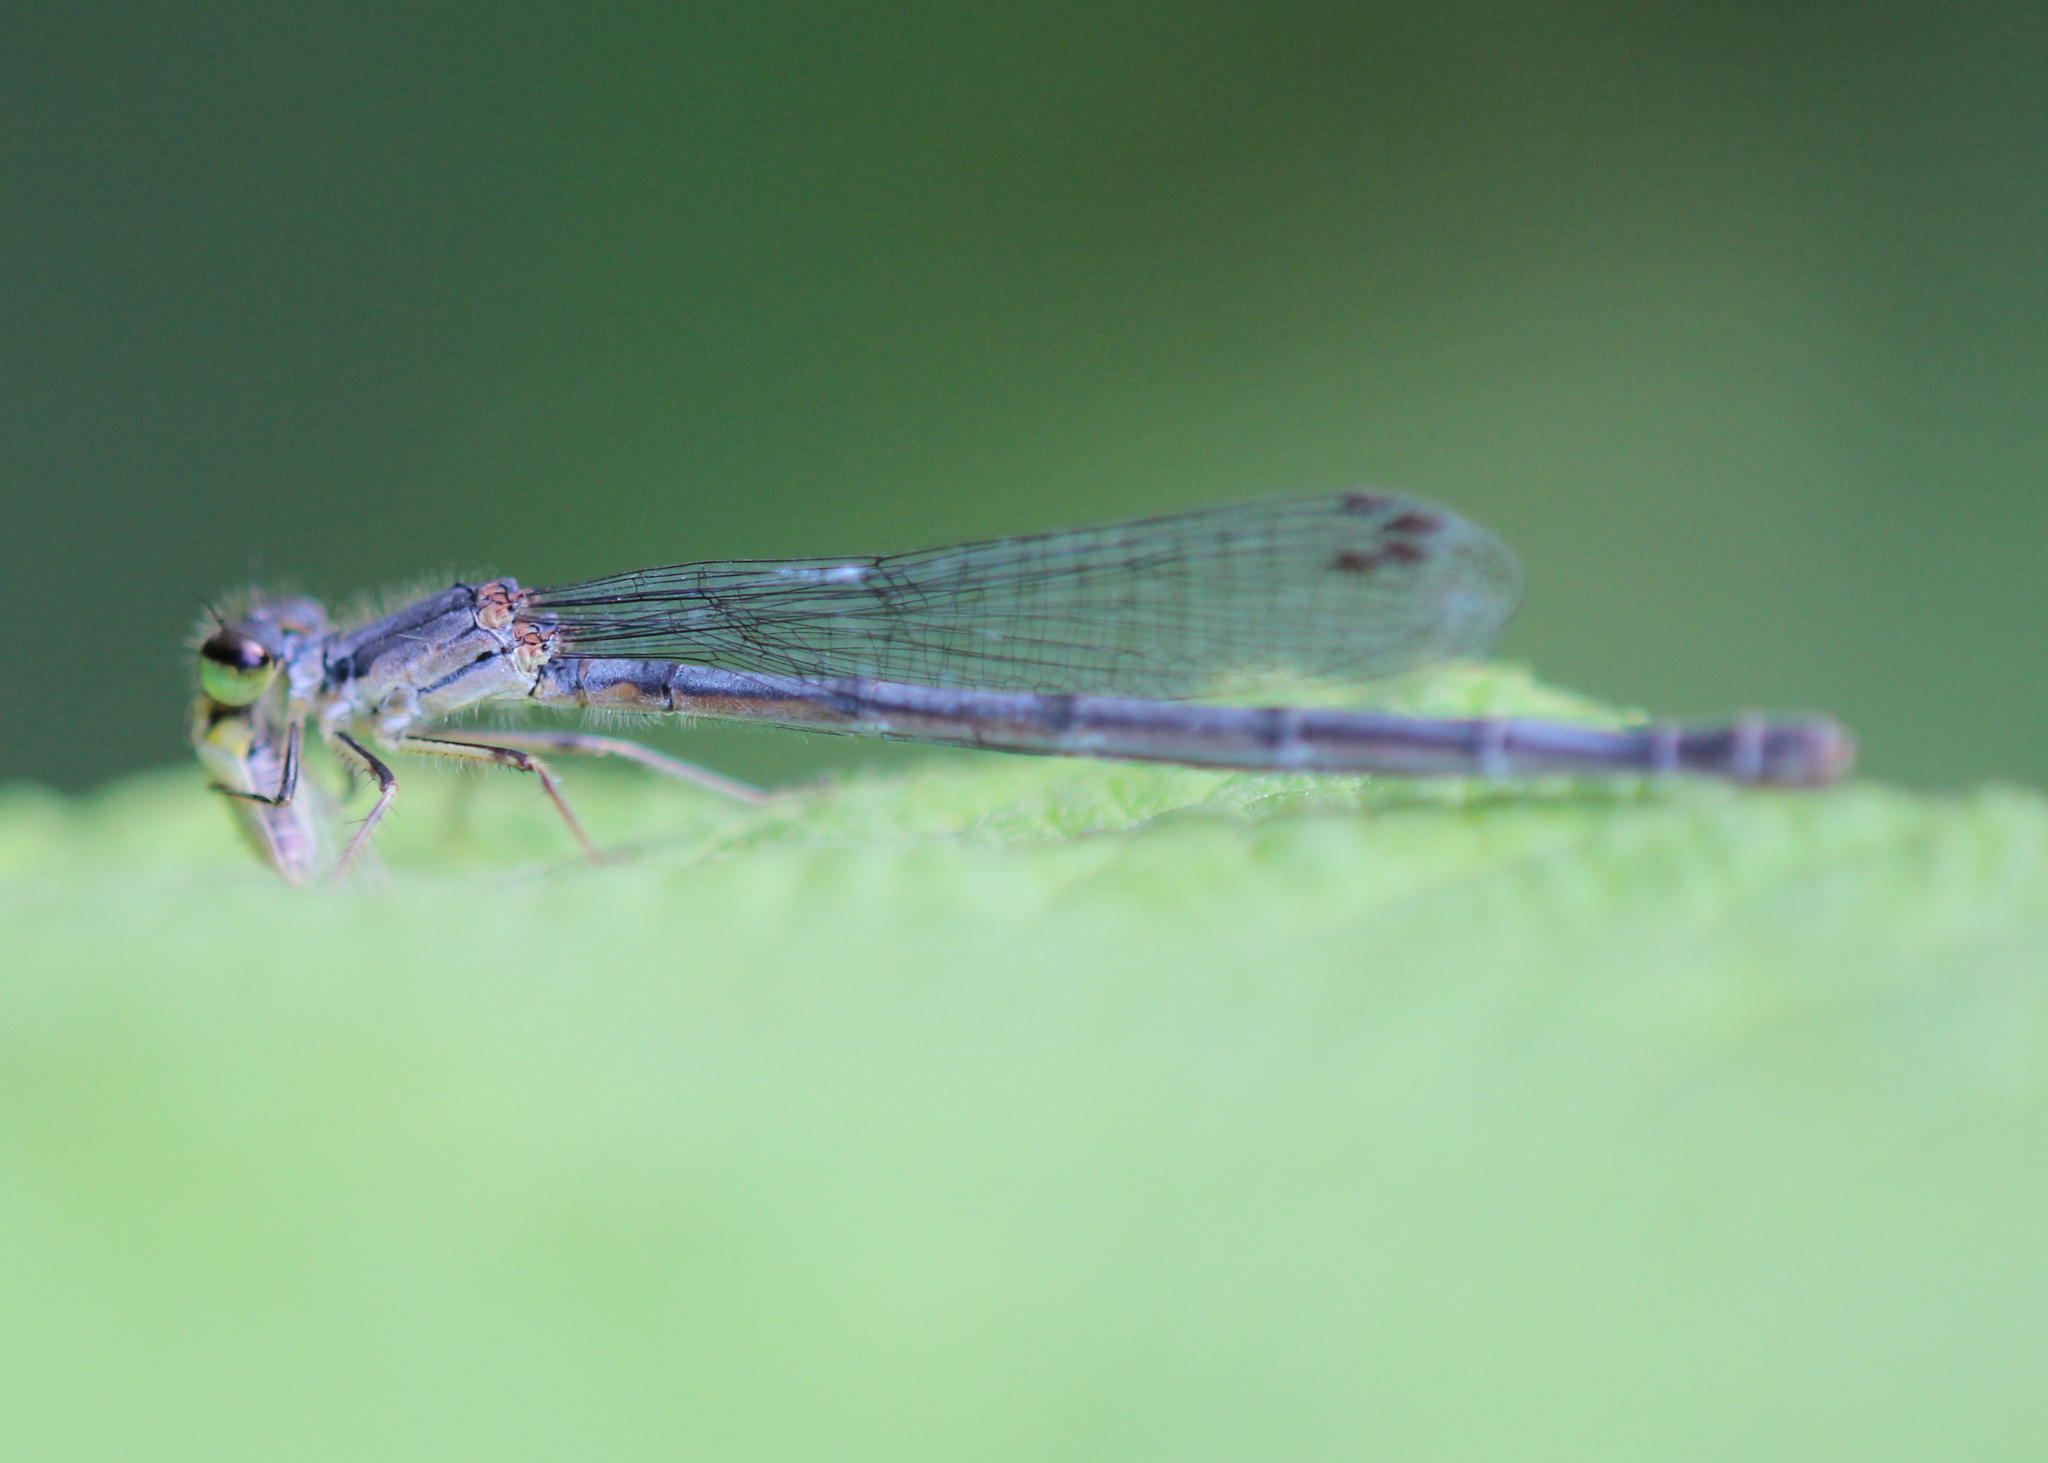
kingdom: Animalia
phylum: Arthropoda
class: Insecta
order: Odonata
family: Coenagrionidae
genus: Ischnura
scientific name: Ischnura verticalis
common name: Eastern forktail
